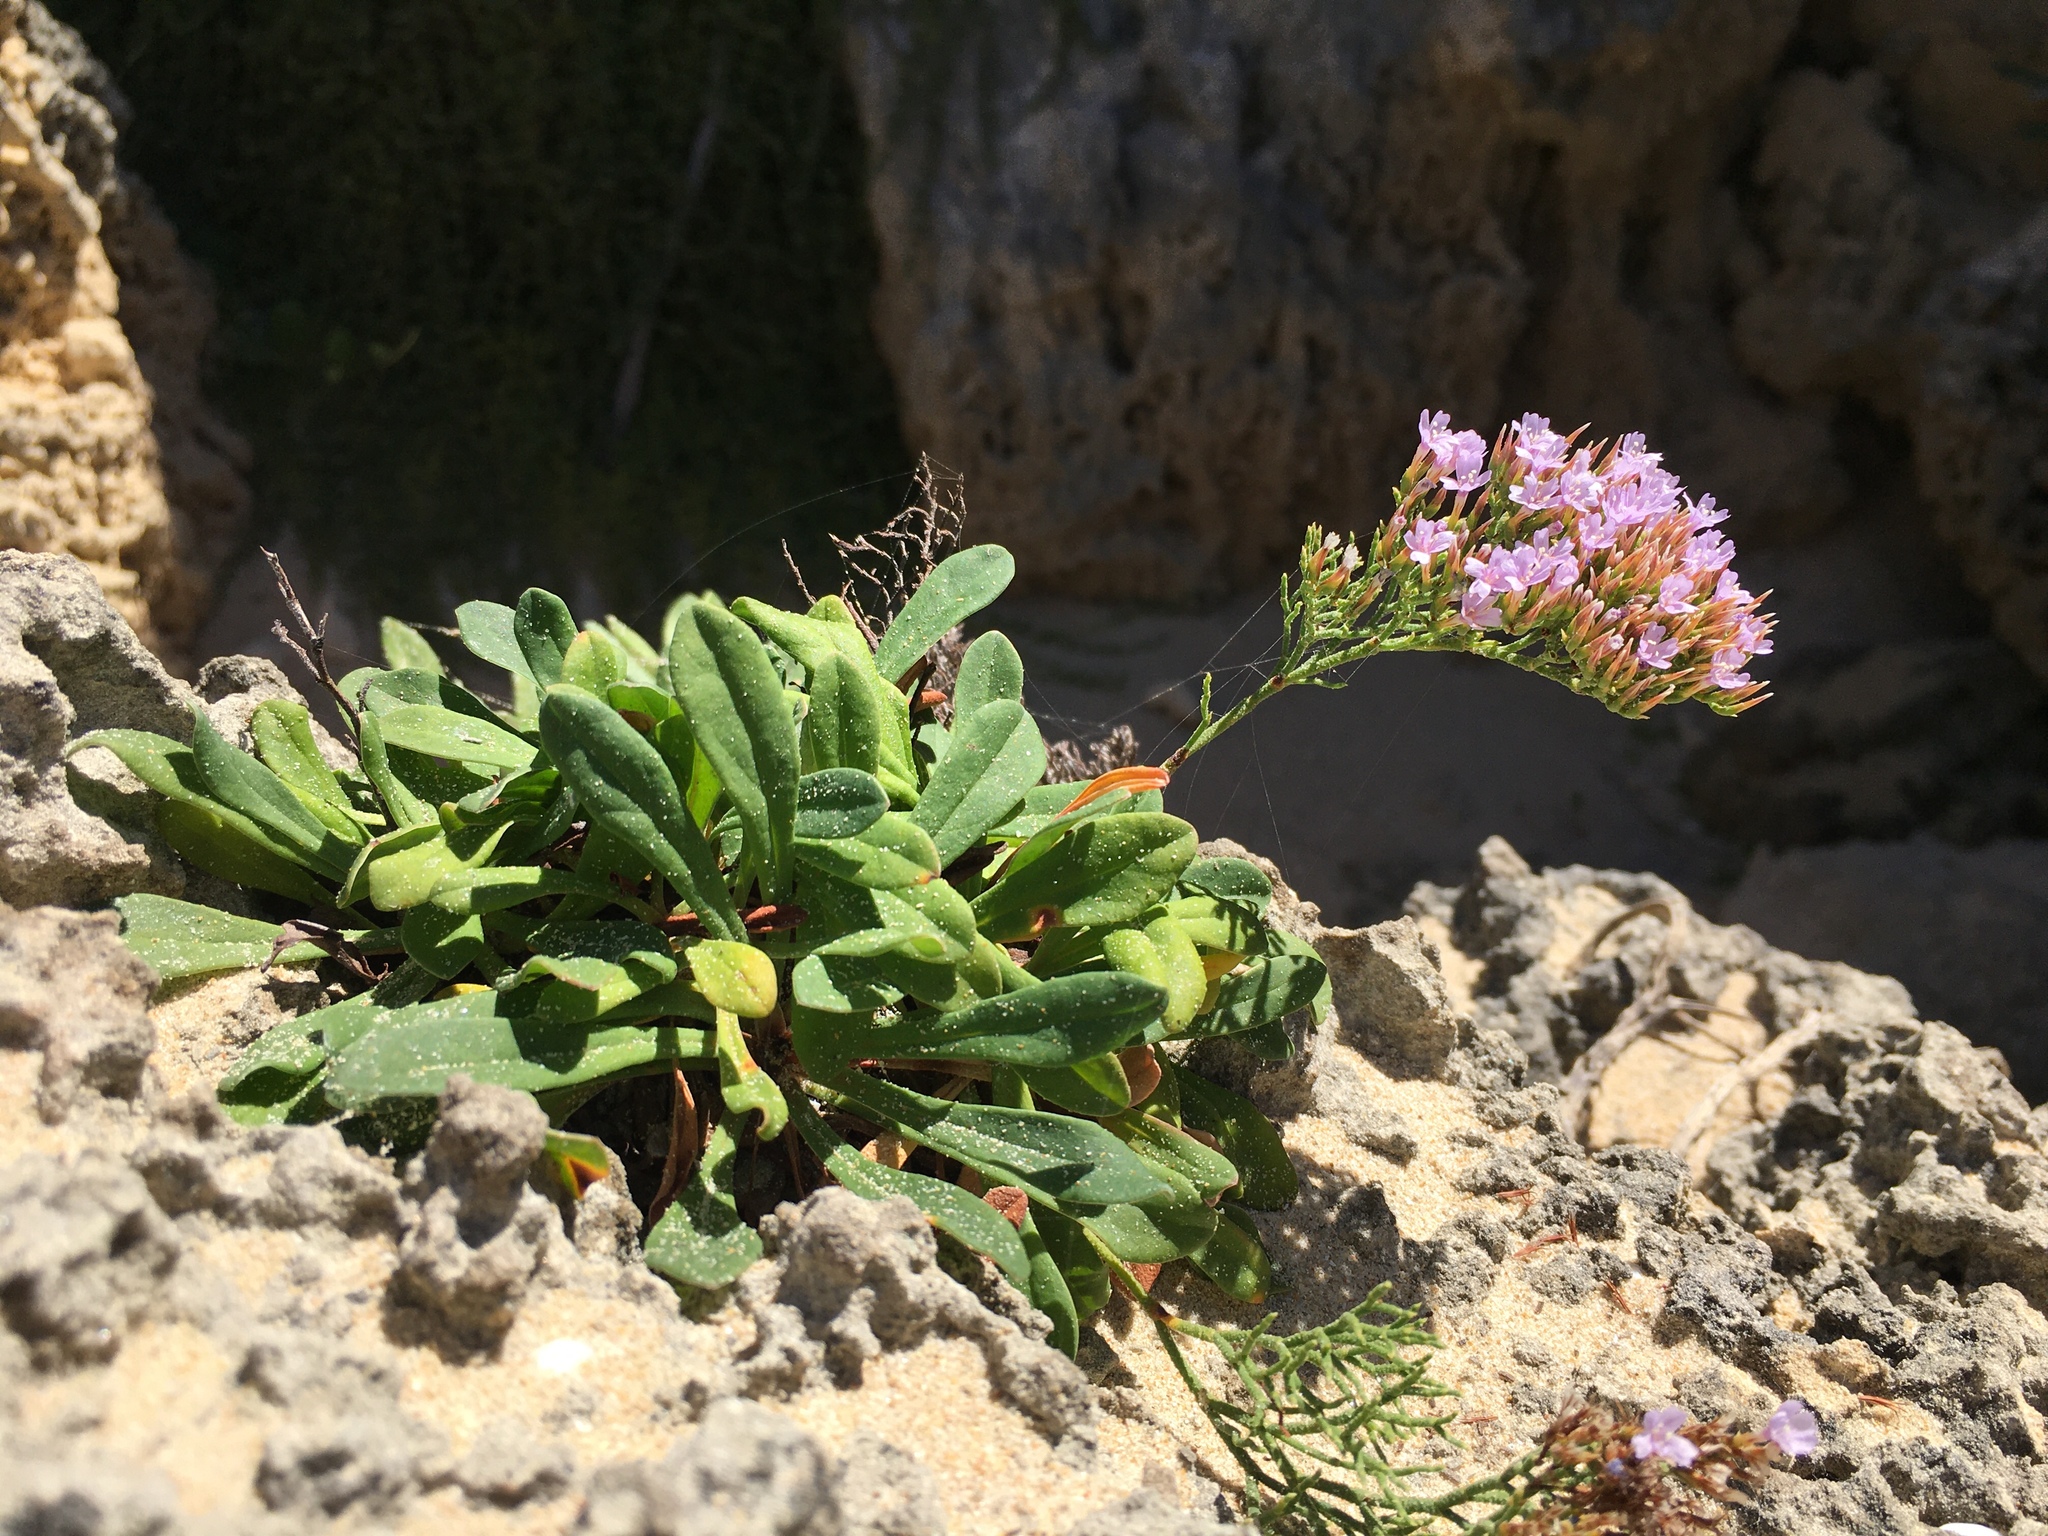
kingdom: Plantae
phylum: Tracheophyta
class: Magnoliopsida
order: Caryophyllales
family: Plumbaginaceae
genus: Limonium
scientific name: Limonium scabrum
